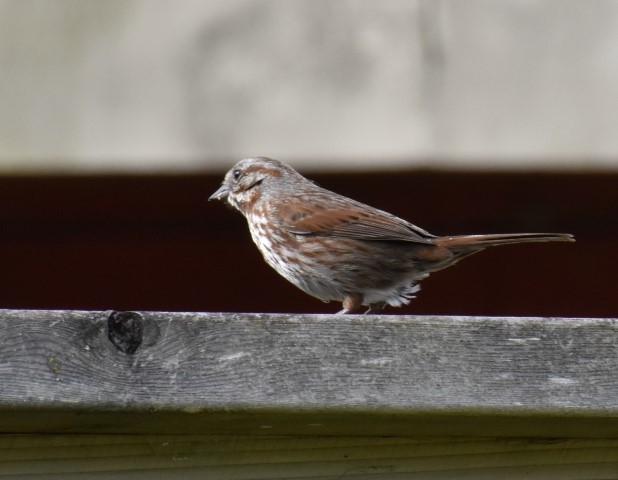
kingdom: Animalia
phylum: Chordata
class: Aves
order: Passeriformes
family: Passerellidae
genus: Melospiza
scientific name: Melospiza melodia
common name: Song sparrow
